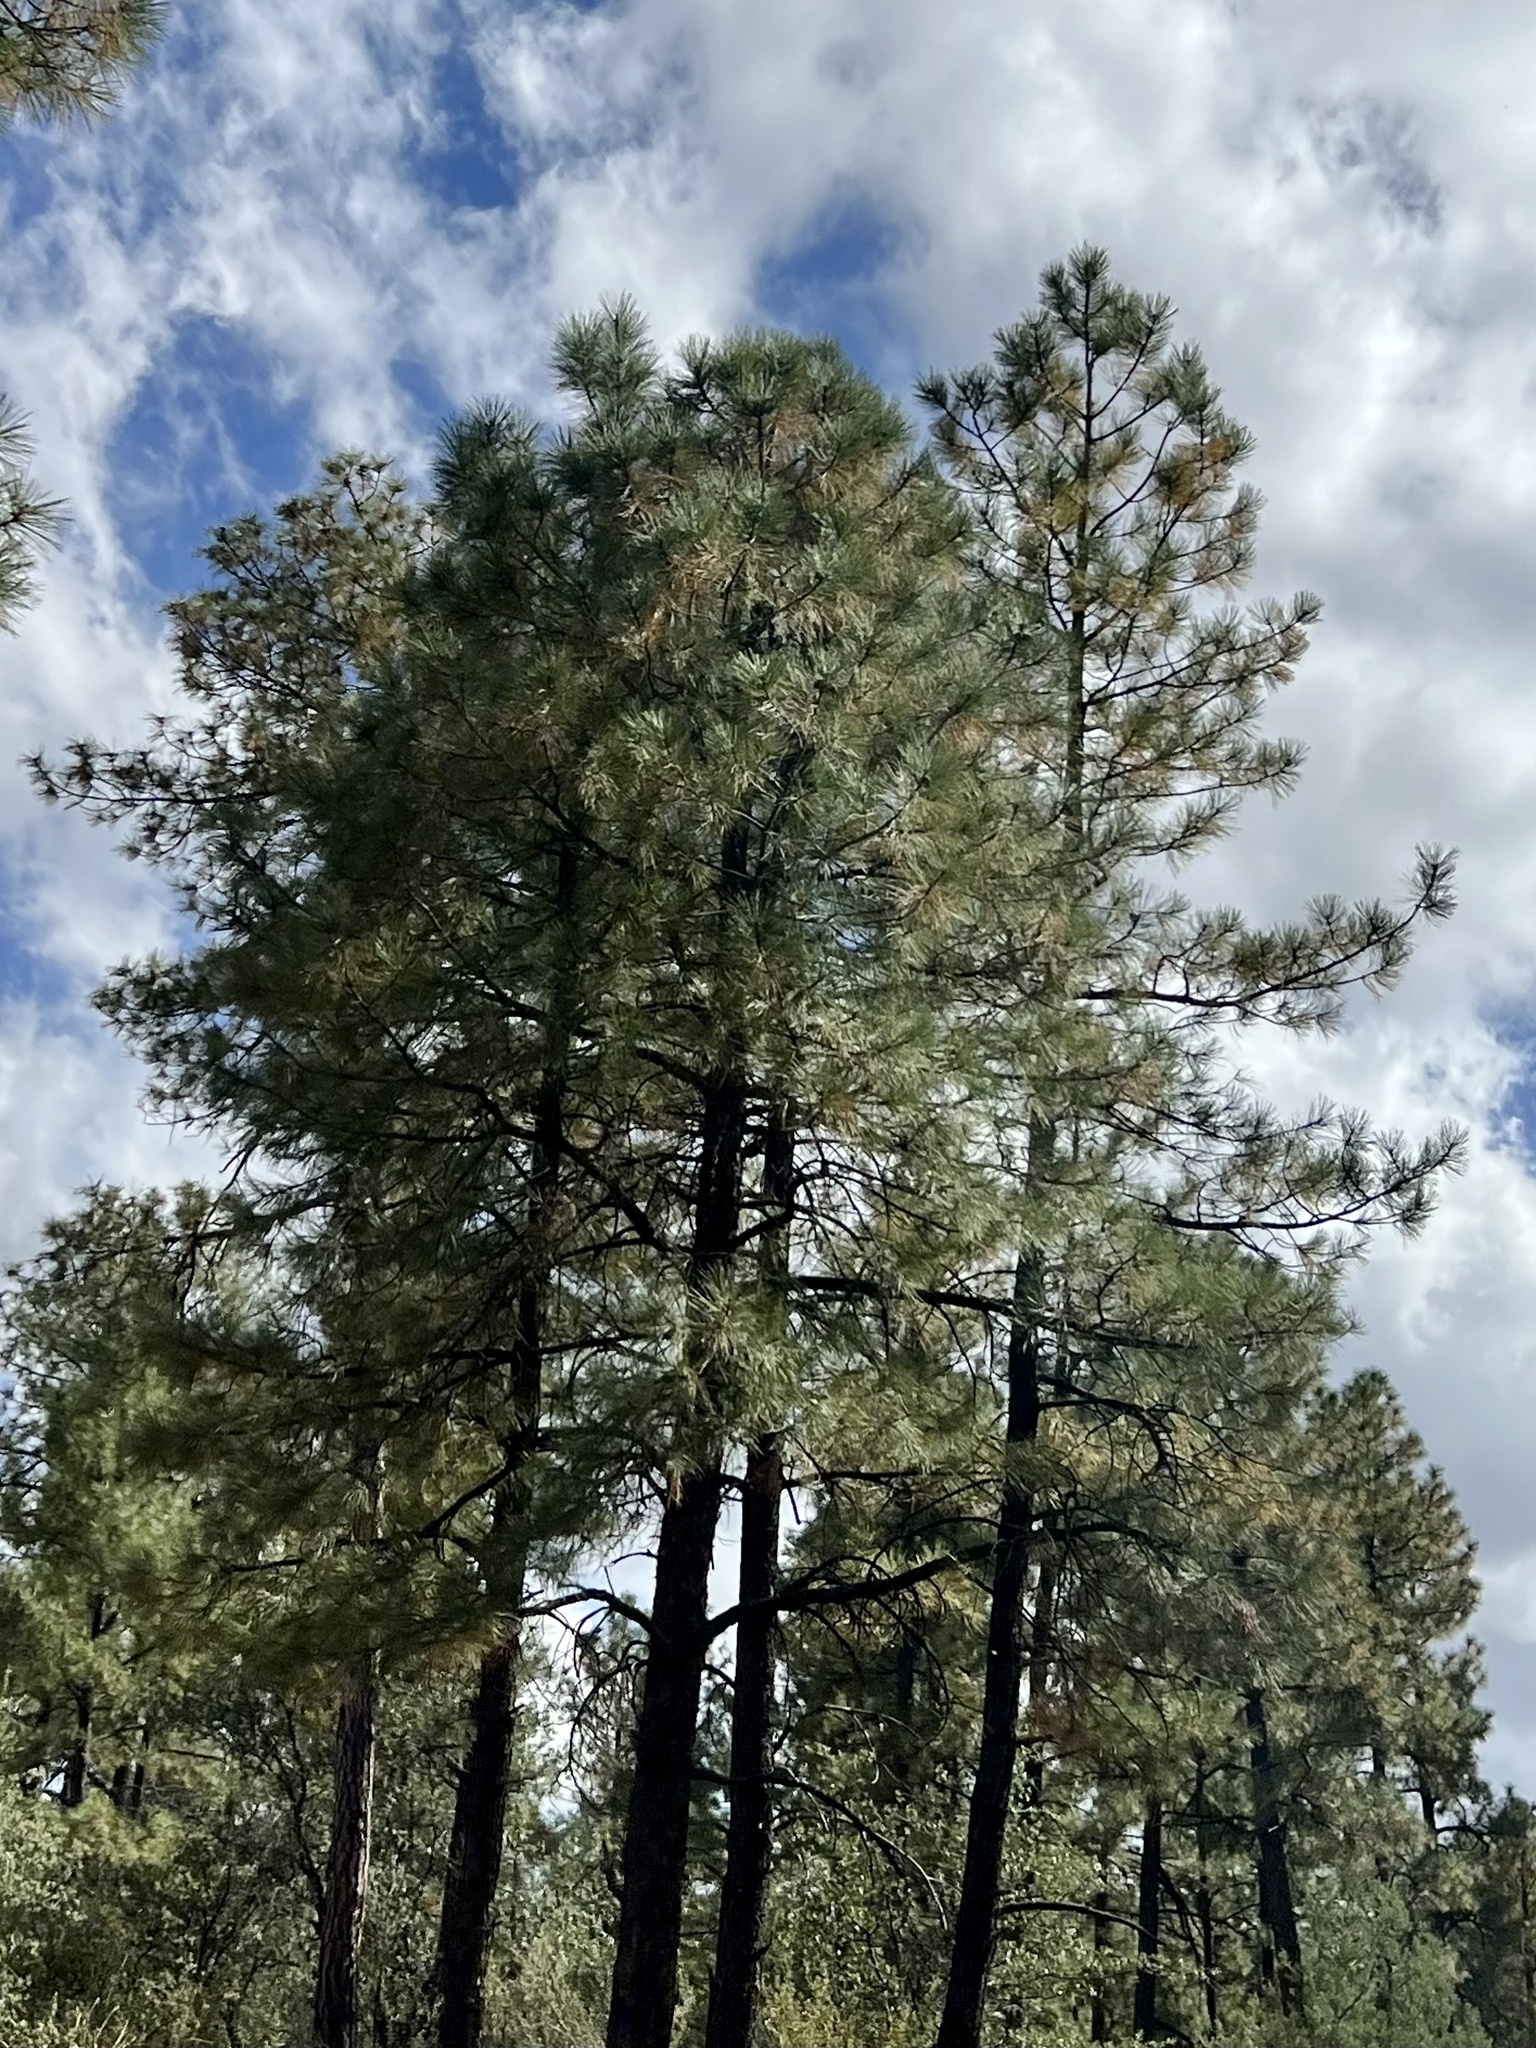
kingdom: Plantae
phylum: Tracheophyta
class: Pinopsida
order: Pinales
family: Pinaceae
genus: Pinus
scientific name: Pinus ponderosa
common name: Western yellow-pine
